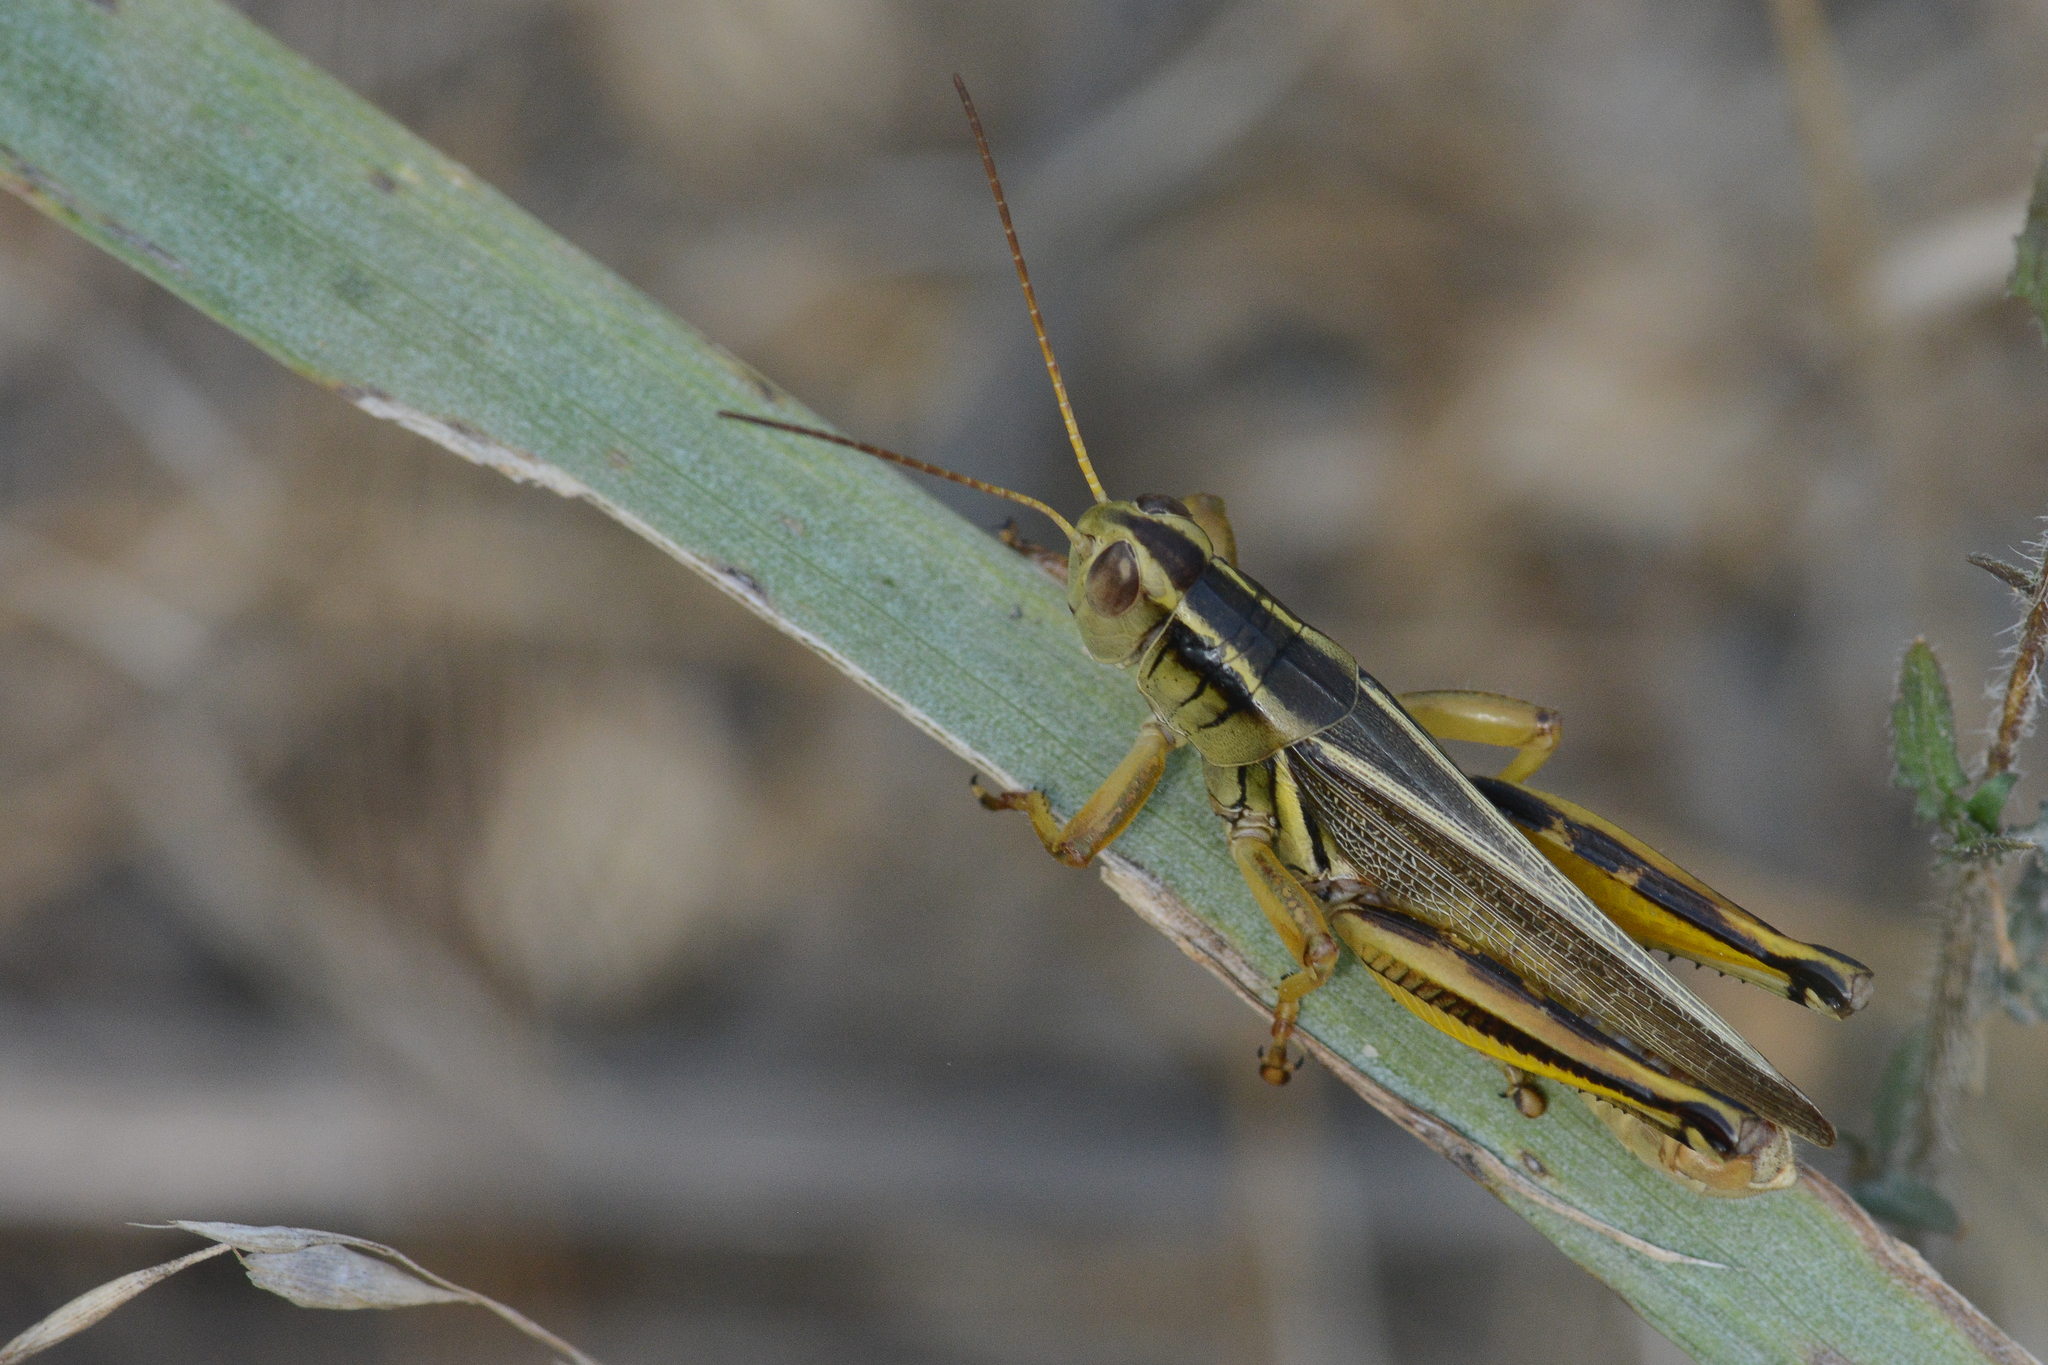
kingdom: Animalia
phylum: Arthropoda
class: Insecta
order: Orthoptera
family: Acrididae
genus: Melanoplus
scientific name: Melanoplus bivittatus
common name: Two-striped grasshopper
